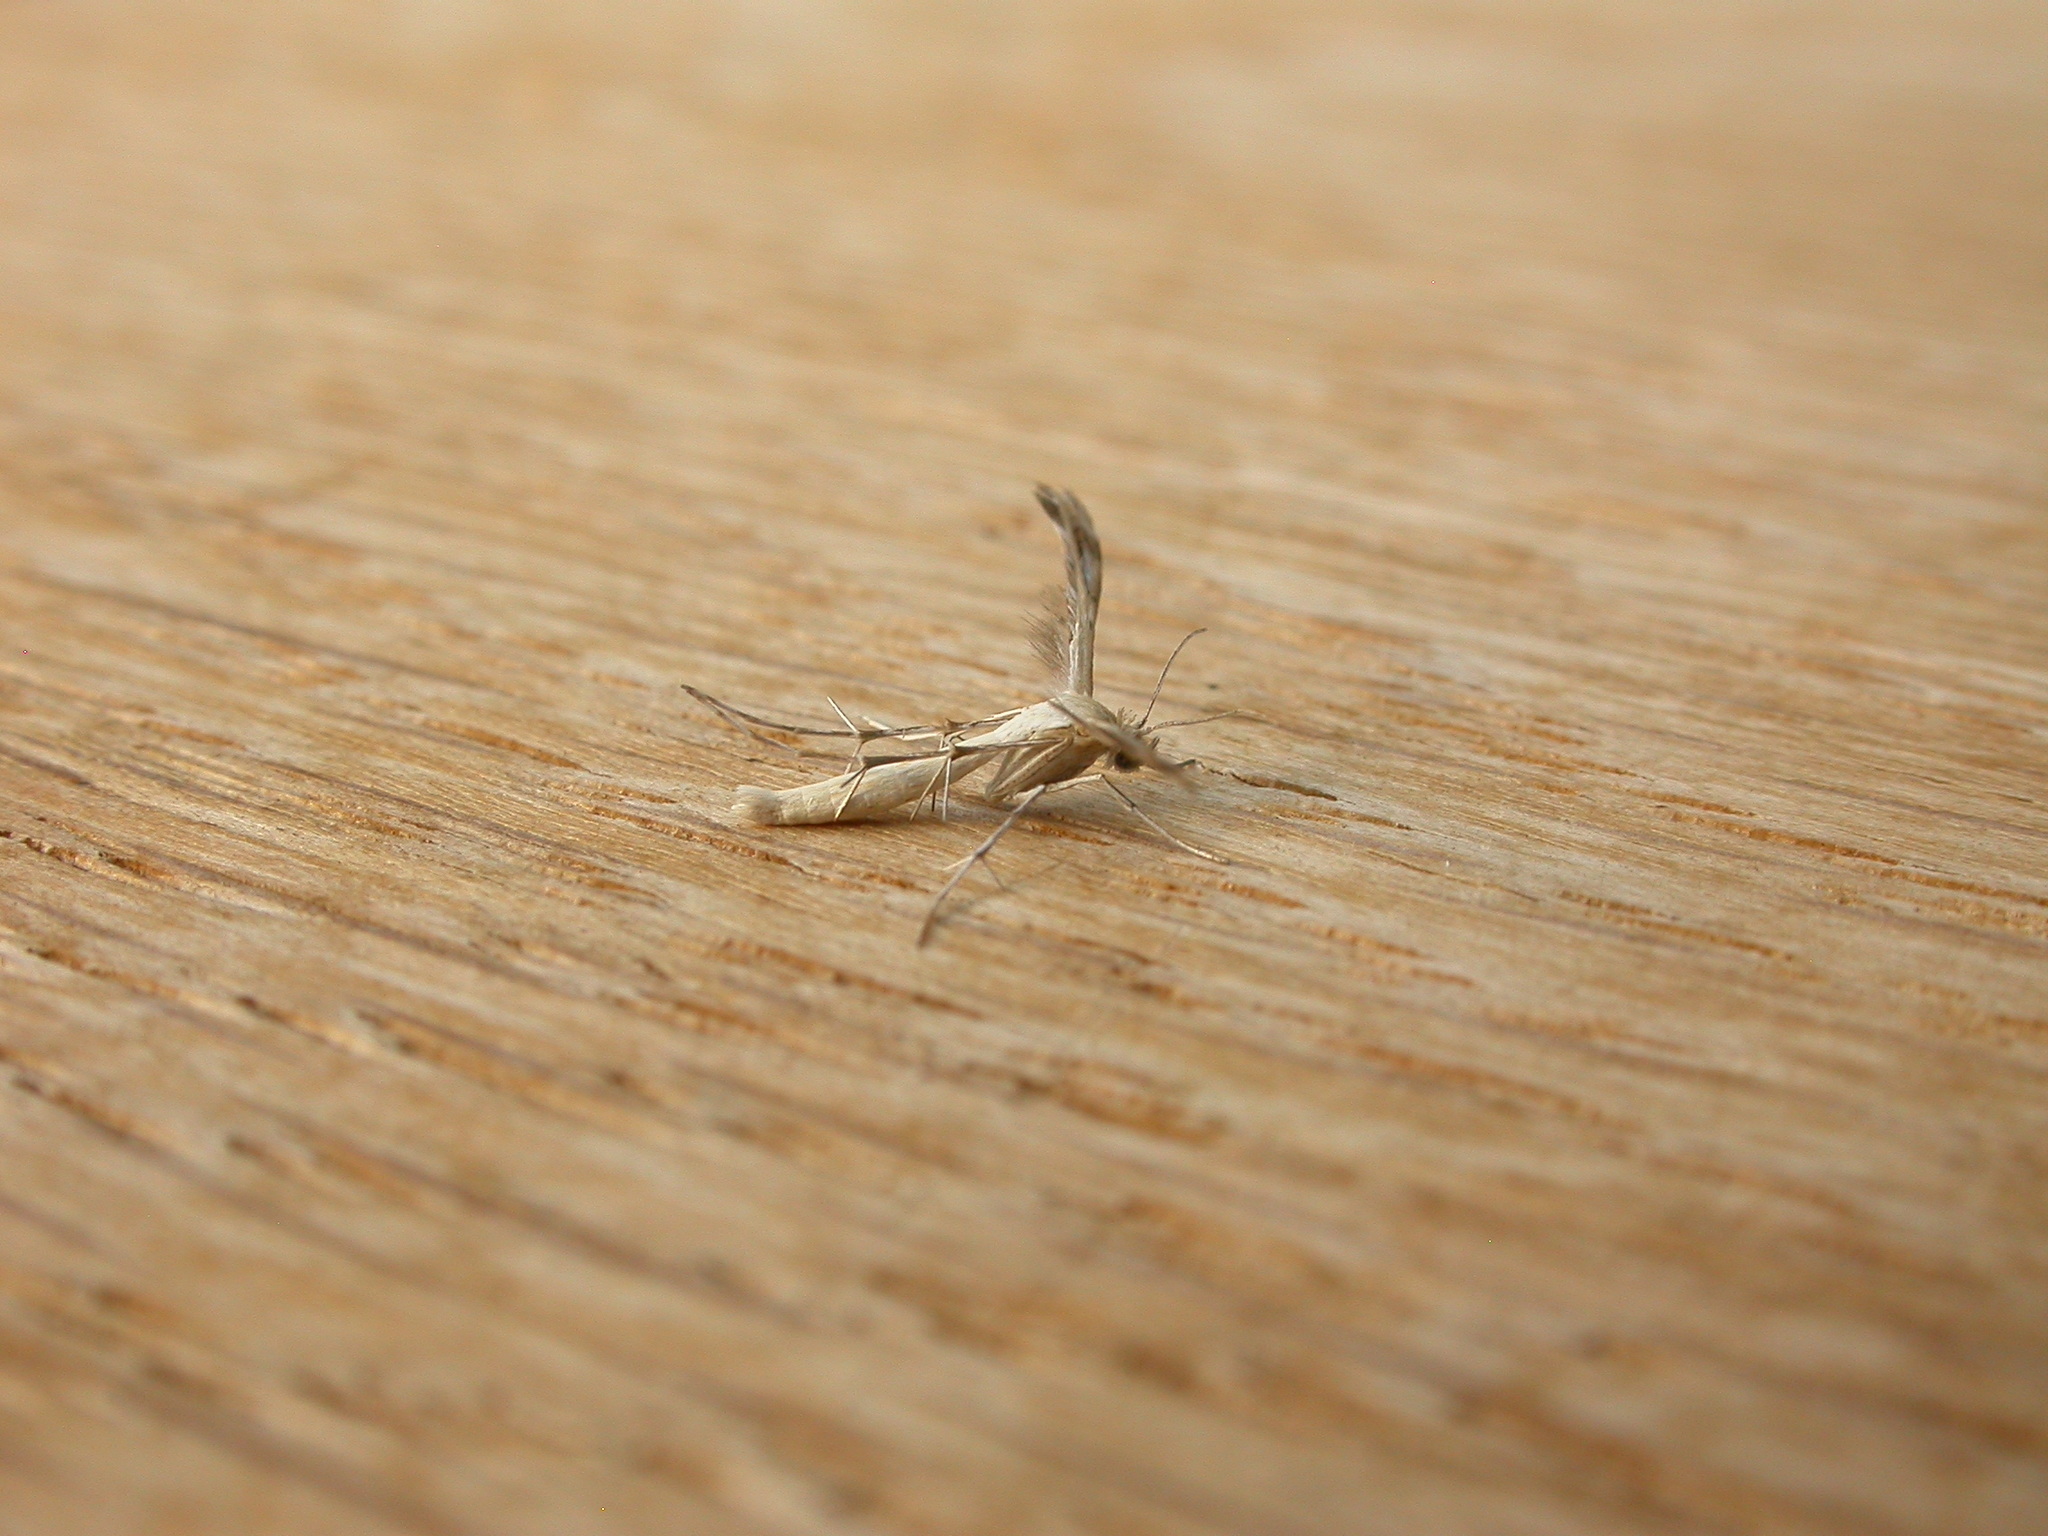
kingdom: Animalia
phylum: Arthropoda
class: Insecta
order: Lepidoptera
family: Pterophoridae
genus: Megalorhipida
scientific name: Megalorhipida leucodactylus
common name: Plume moth
